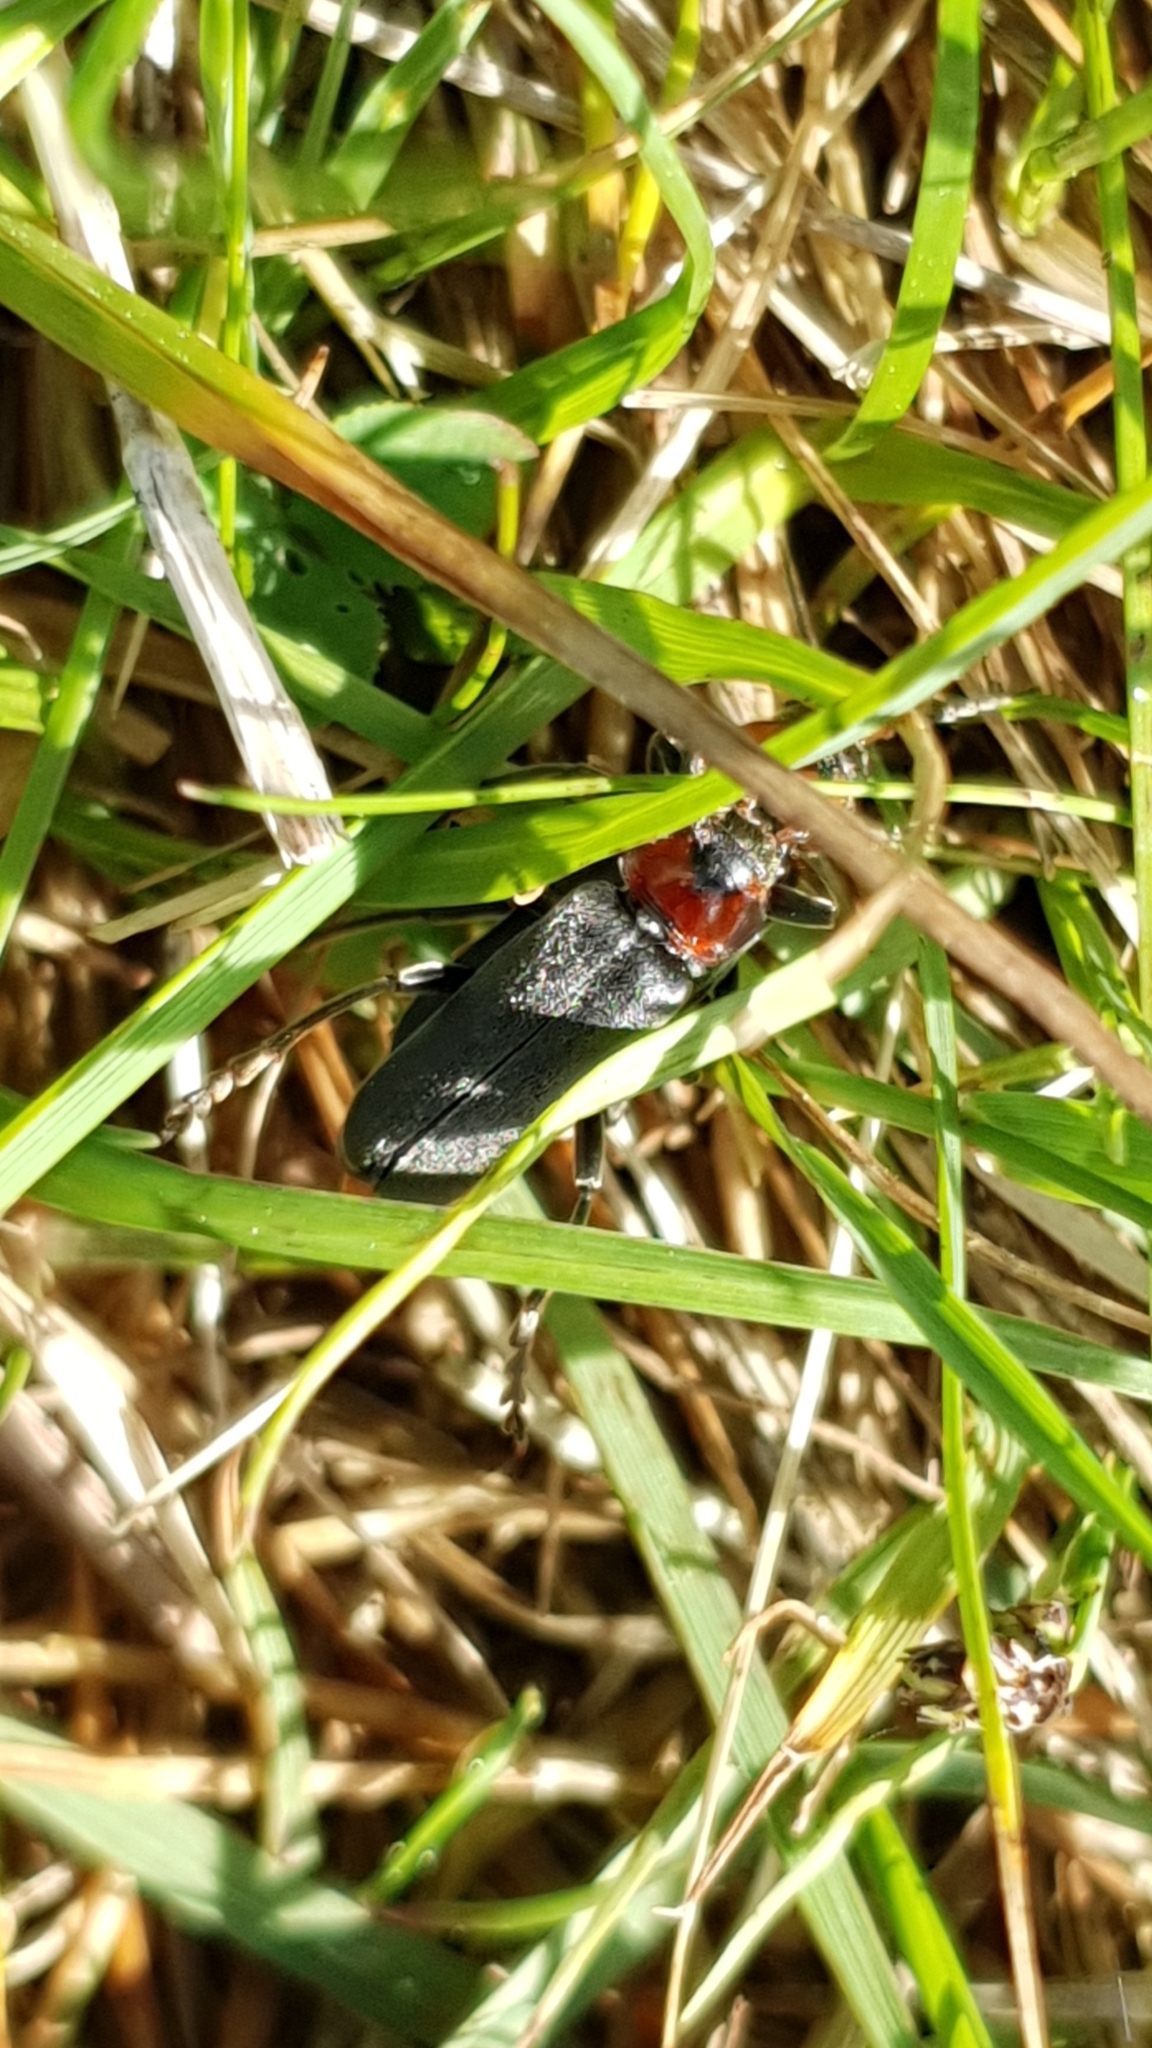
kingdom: Animalia
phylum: Arthropoda
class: Insecta
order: Coleoptera
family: Cantharidae
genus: Cantharis
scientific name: Cantharis fusca
